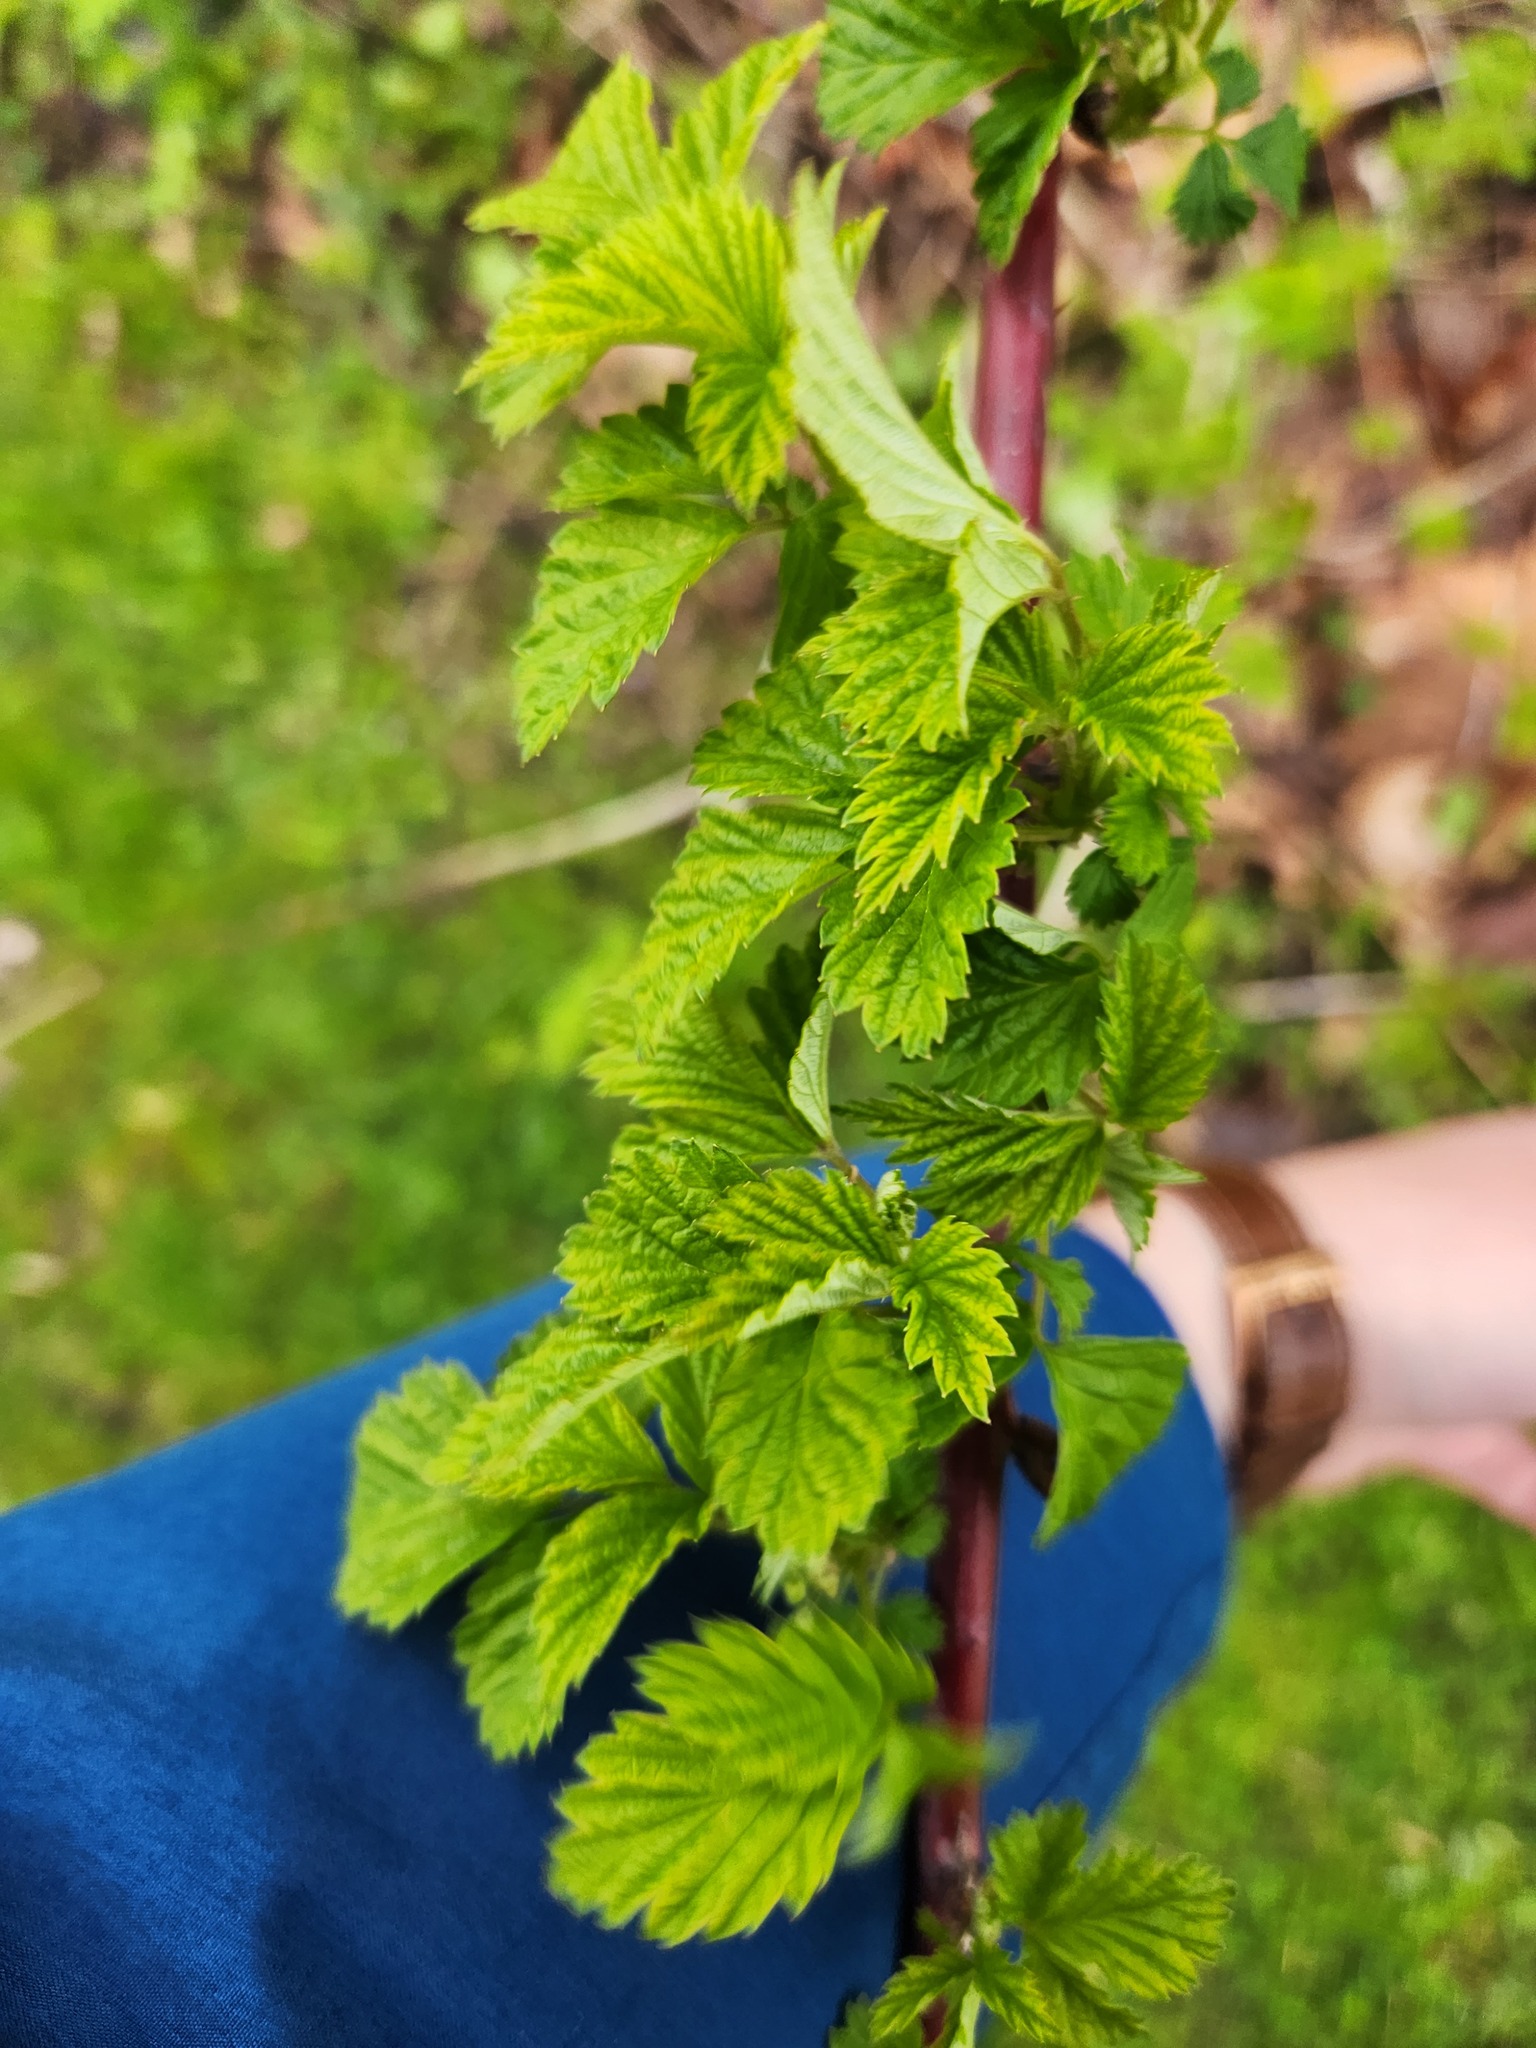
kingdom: Plantae
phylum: Tracheophyta
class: Magnoliopsida
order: Rosales
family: Rosaceae
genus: Rubus
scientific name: Rubus occidentalis
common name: Black raspberry
